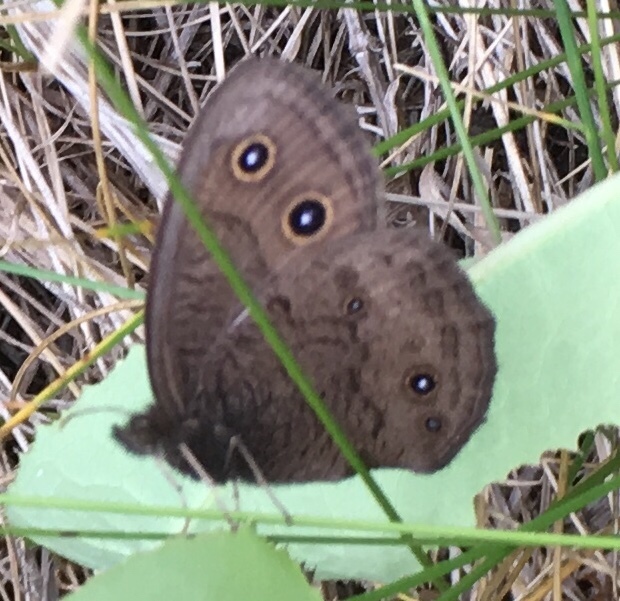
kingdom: Animalia
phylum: Arthropoda
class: Insecta
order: Lepidoptera
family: Nymphalidae
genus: Cercyonis
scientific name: Cercyonis pegala
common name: Common wood-nymph
